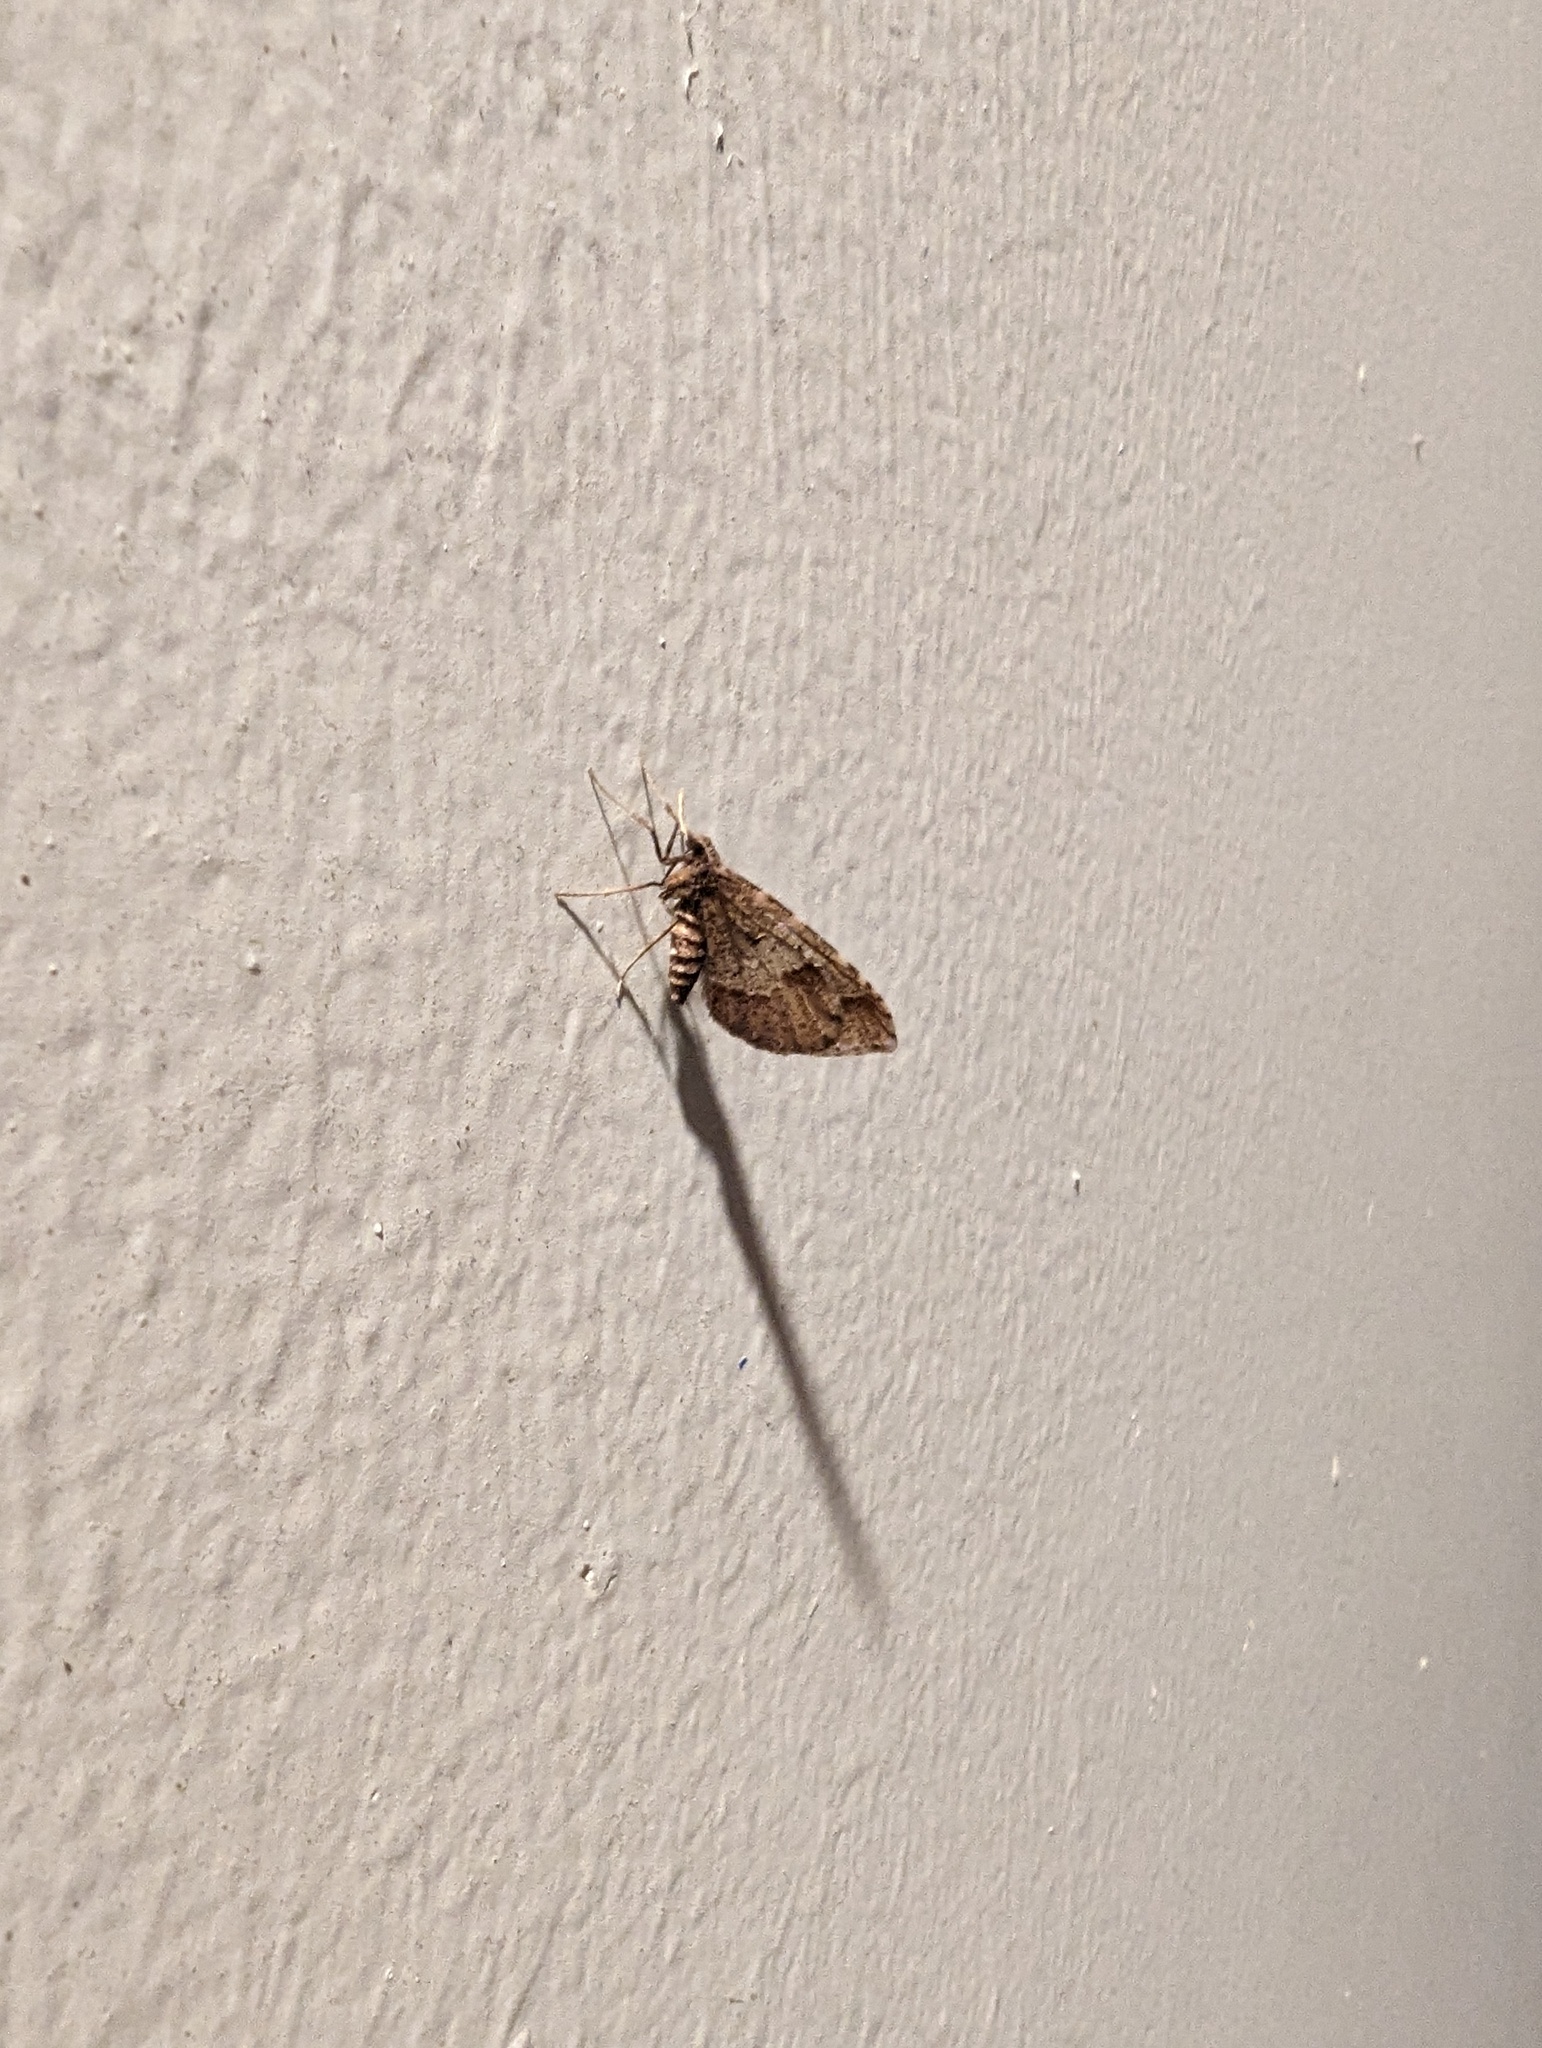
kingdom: Animalia
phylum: Arthropoda
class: Insecta
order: Lepidoptera
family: Geometridae
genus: Stamnodes
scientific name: Stamnodes affiliata
